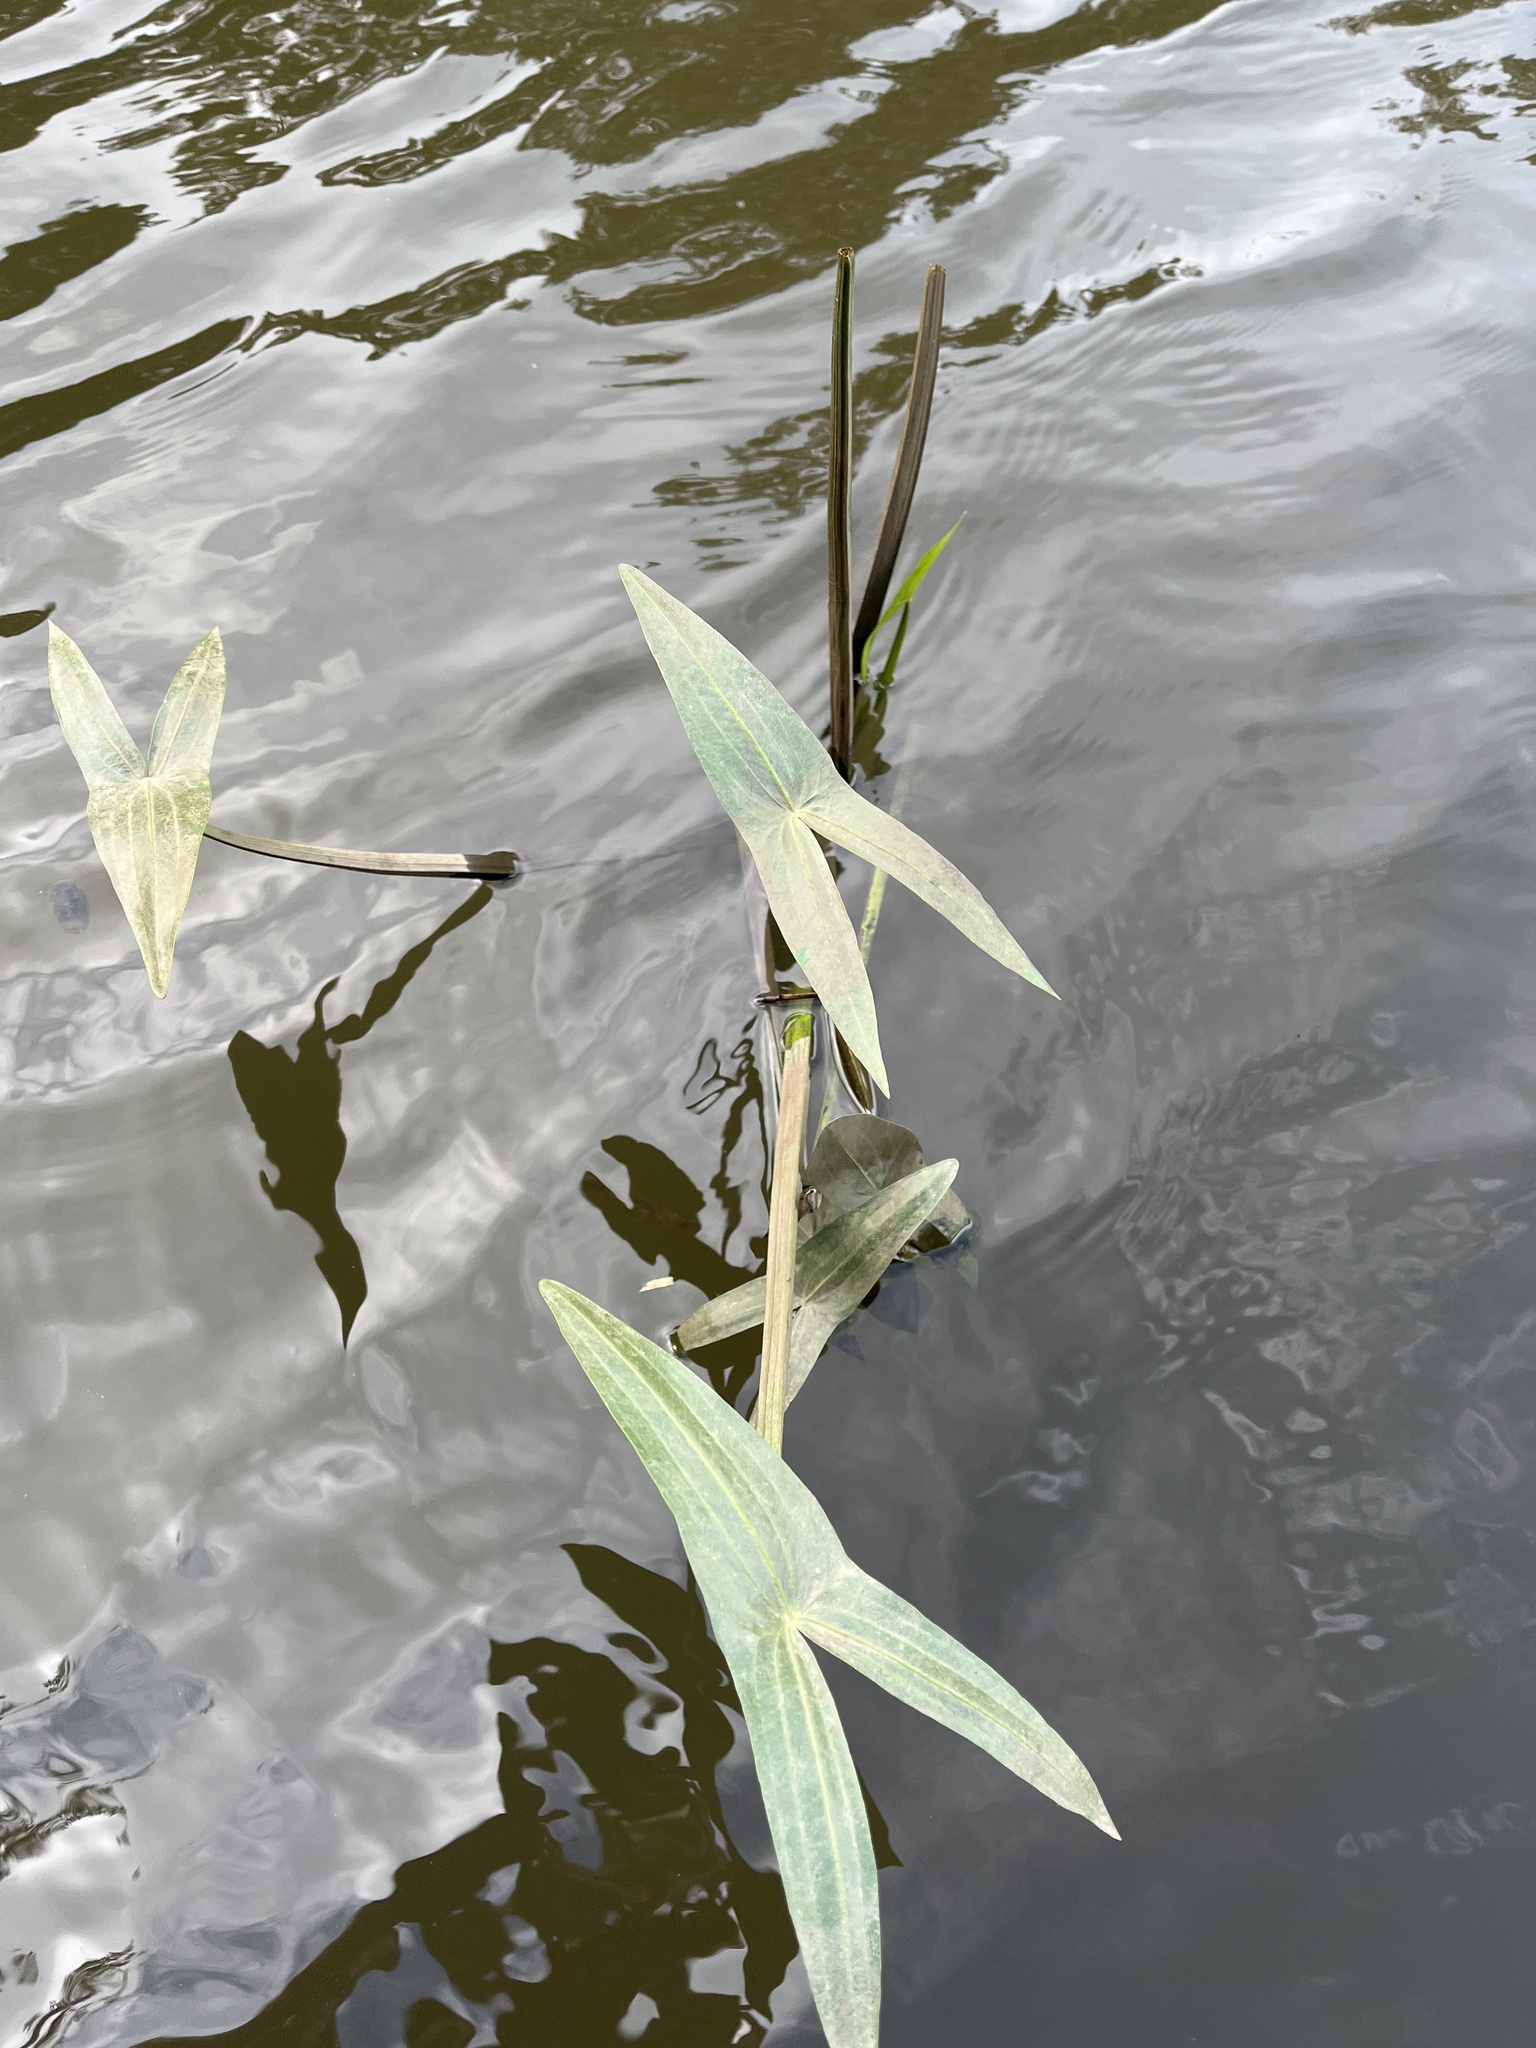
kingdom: Plantae
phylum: Tracheophyta
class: Liliopsida
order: Alismatales
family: Alismataceae
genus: Sagittaria
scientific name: Sagittaria sagittifolia
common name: Arrowhead
